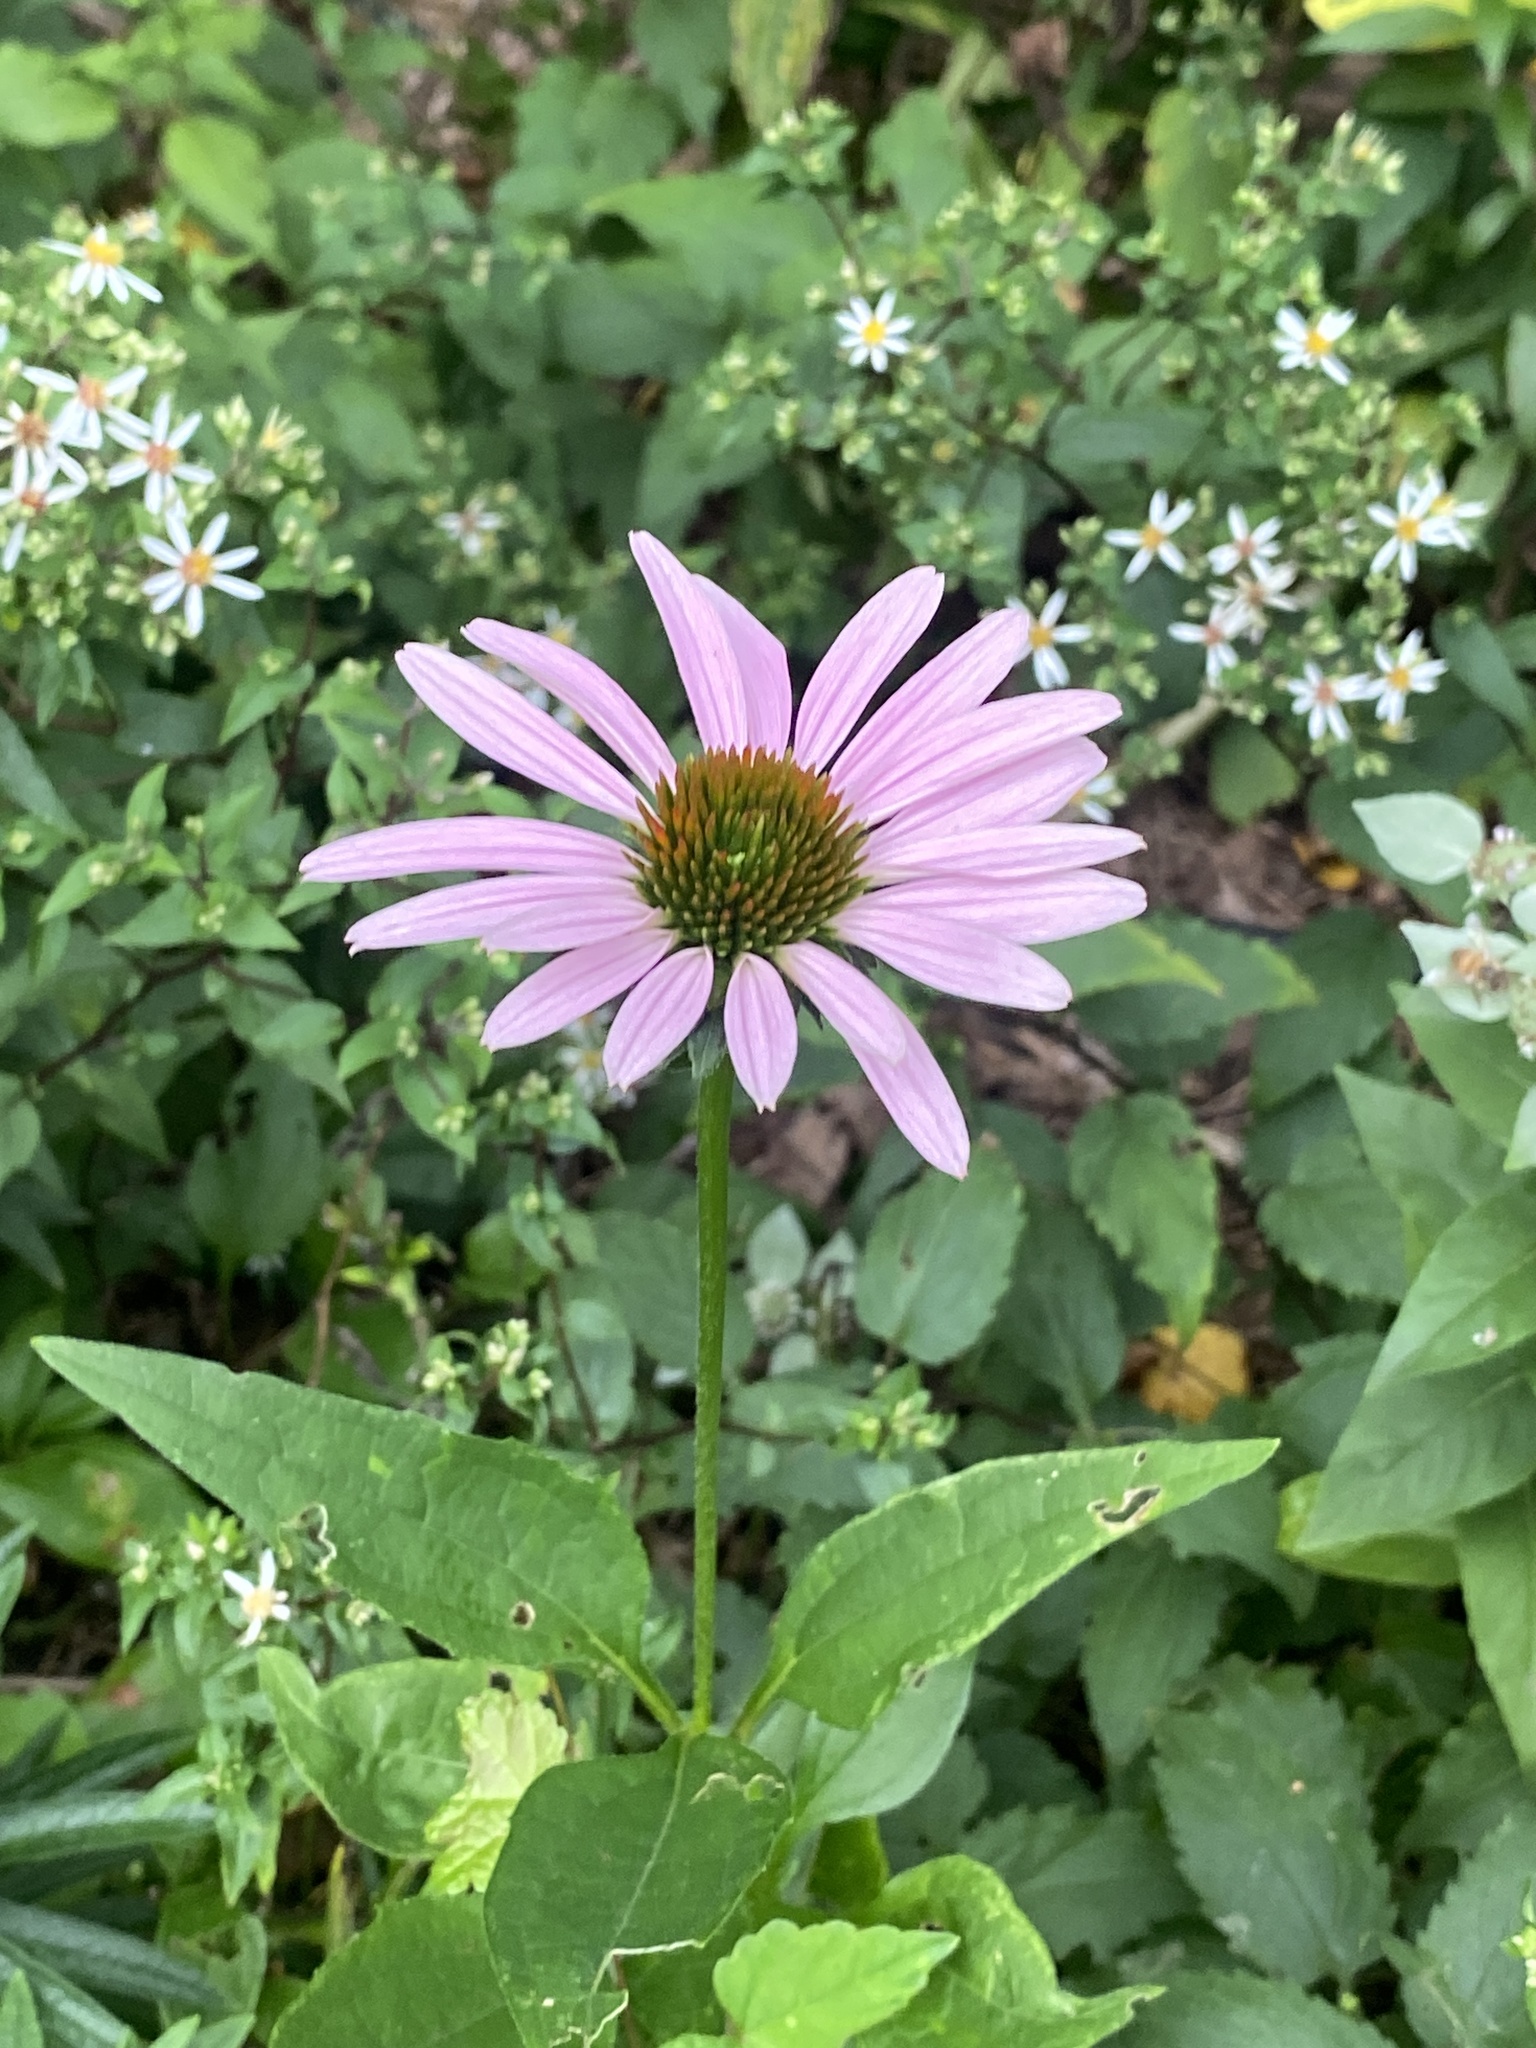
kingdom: Plantae
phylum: Tracheophyta
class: Magnoliopsida
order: Asterales
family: Asteraceae
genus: Echinacea
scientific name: Echinacea purpurea
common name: Broad-leaved purple coneflower
